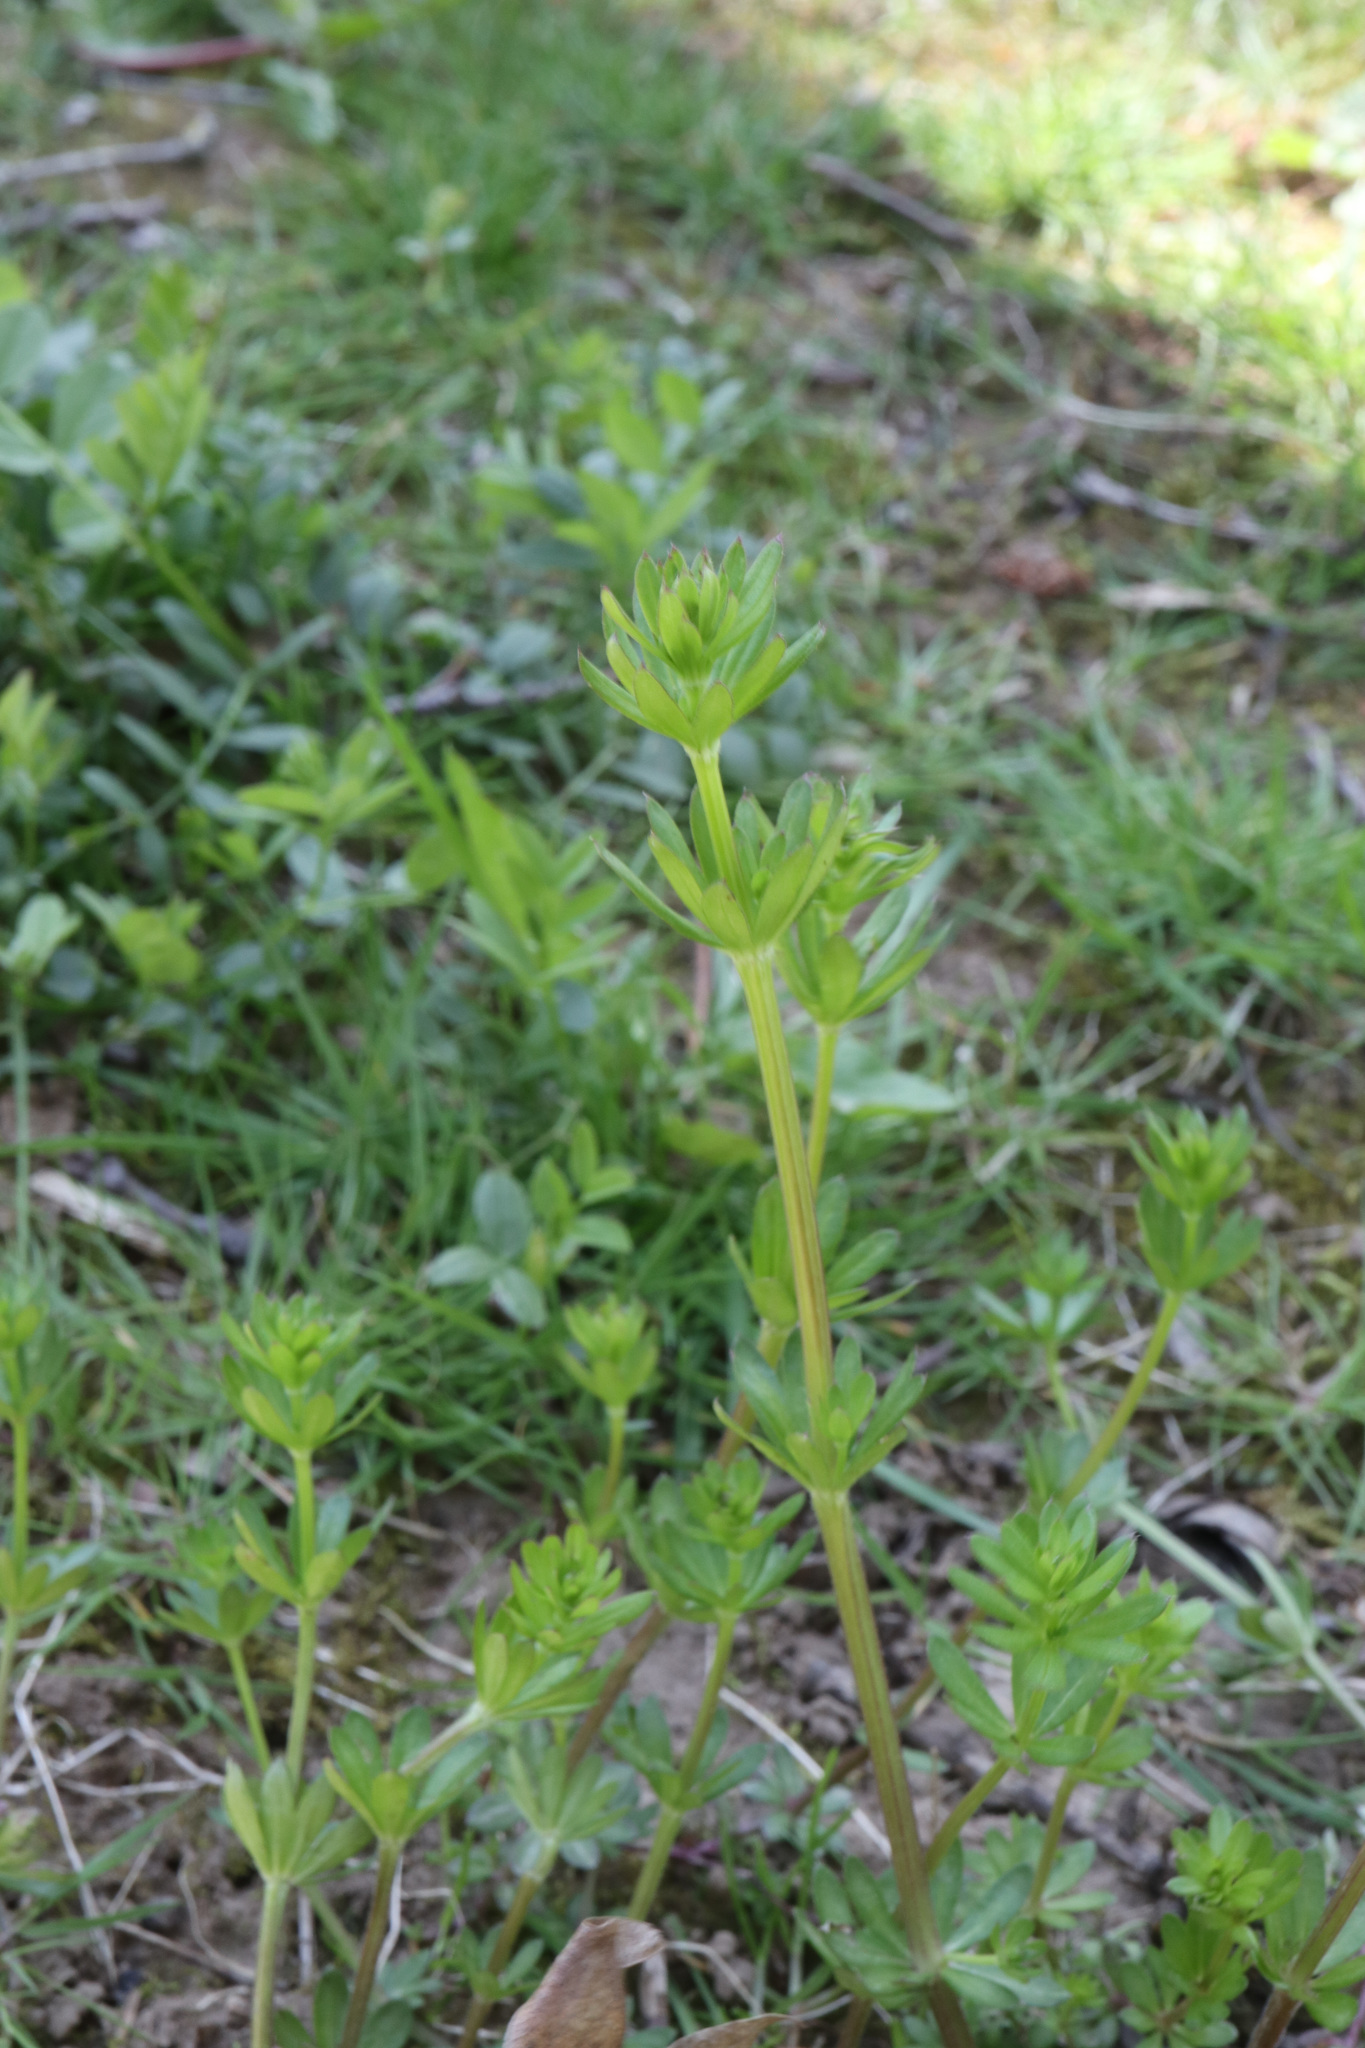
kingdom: Plantae
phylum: Tracheophyta
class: Magnoliopsida
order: Gentianales
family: Rubiaceae
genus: Galium
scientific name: Galium mollugo
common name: Hedge bedstraw
